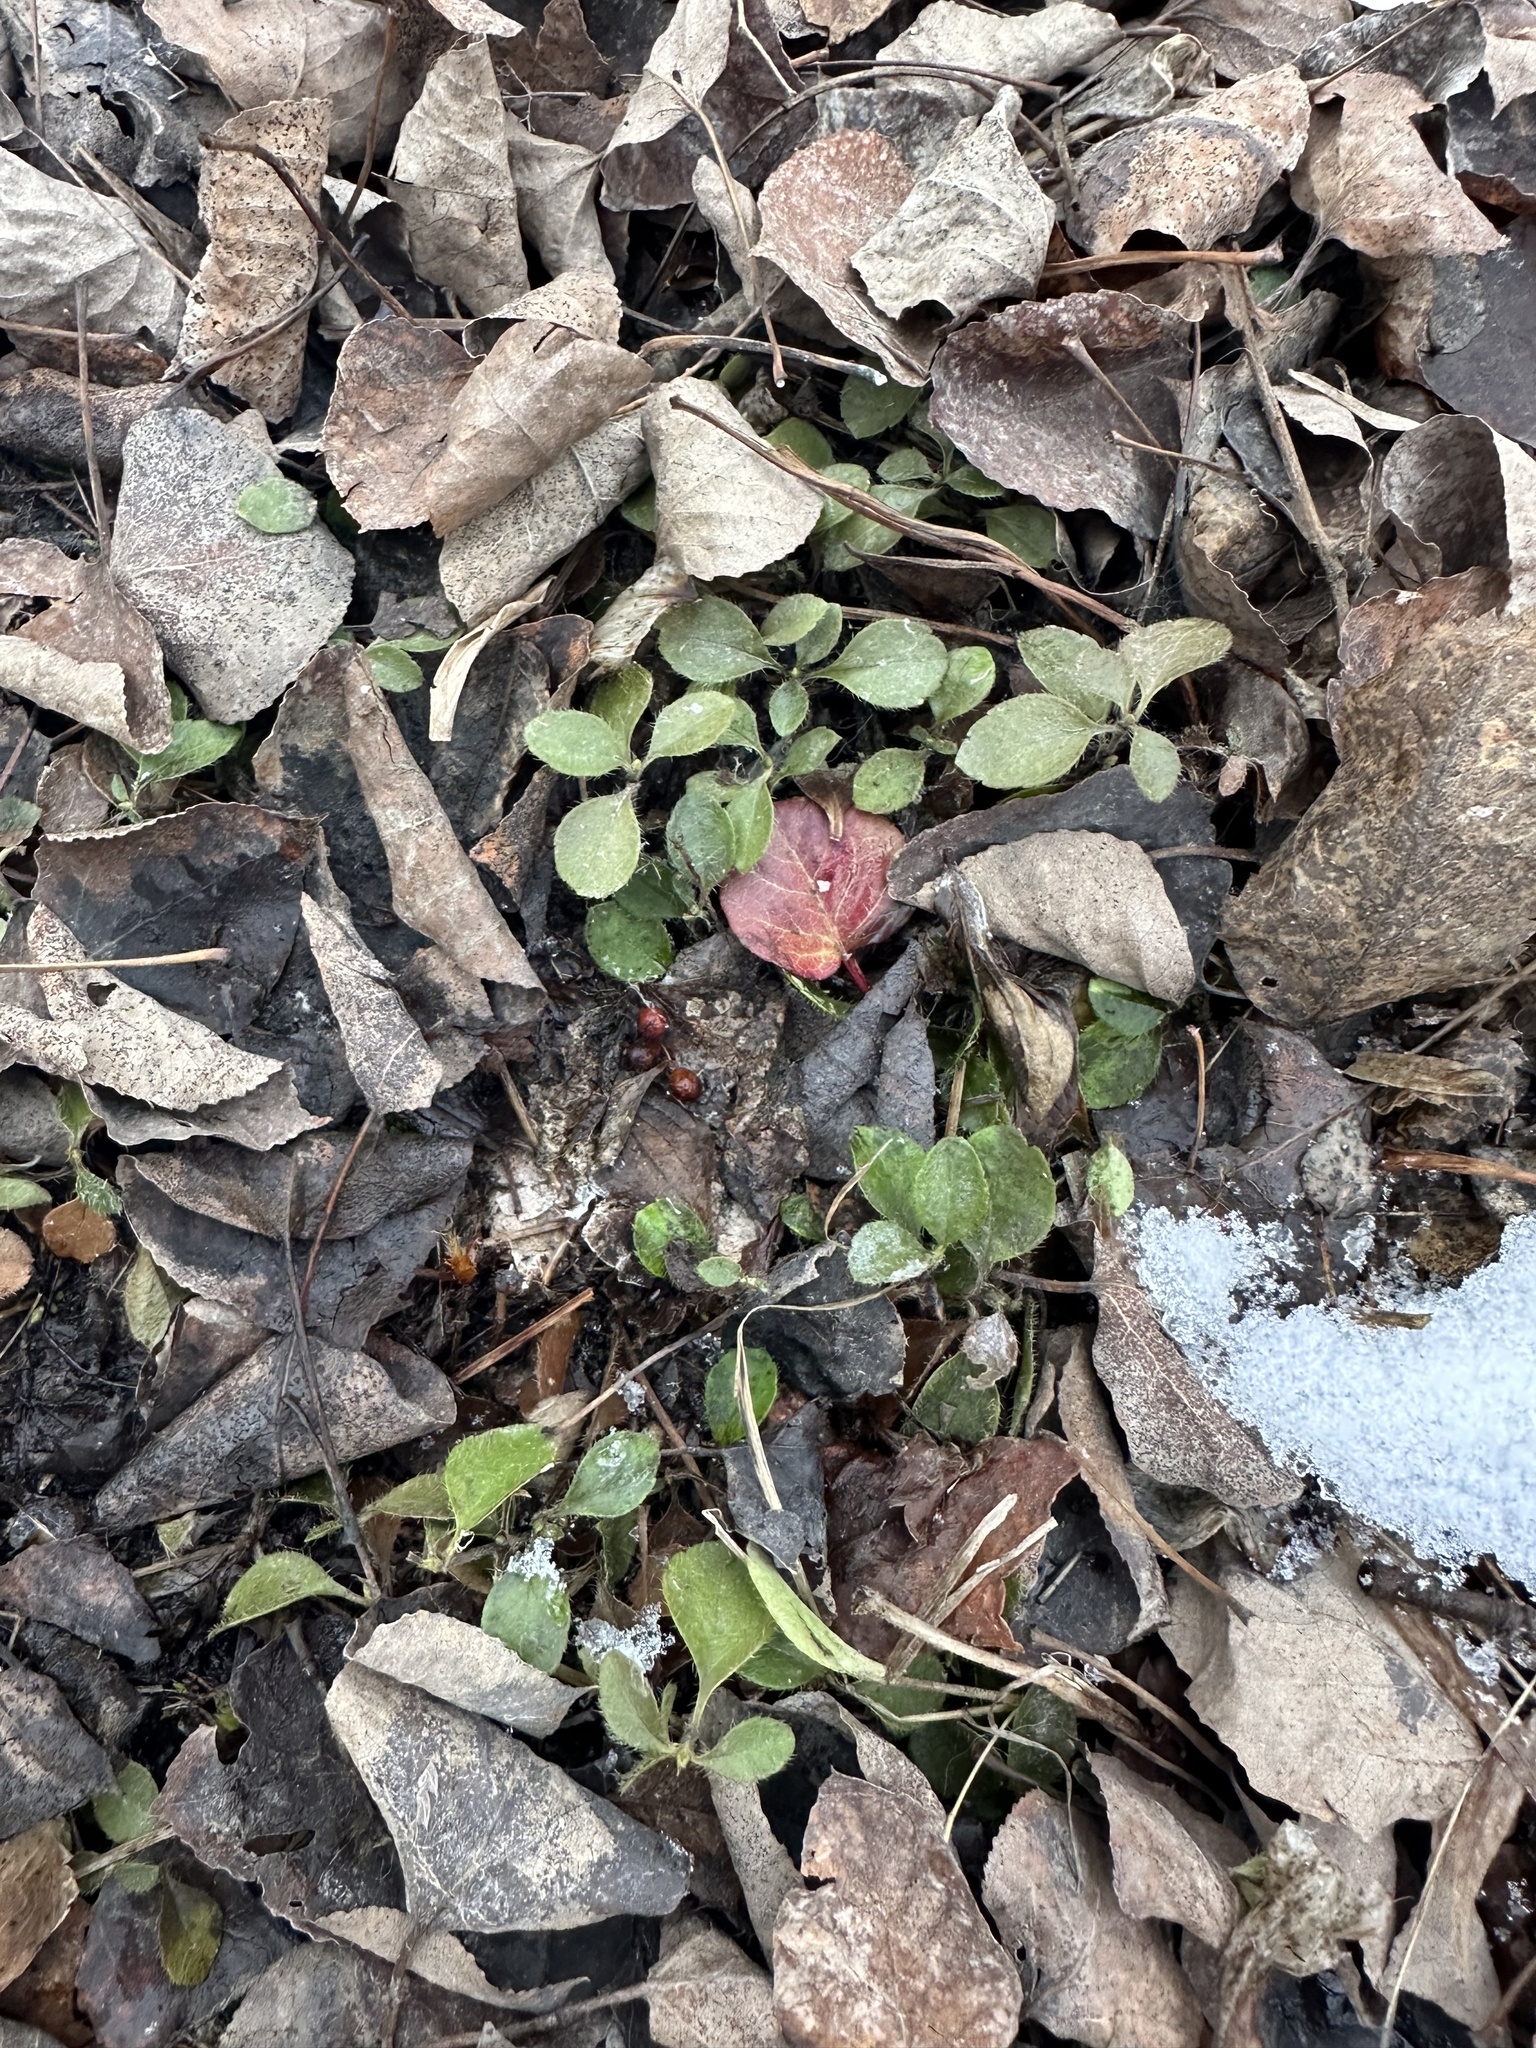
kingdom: Plantae
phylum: Tracheophyta
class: Magnoliopsida
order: Dipsacales
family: Caprifoliaceae
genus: Linnaea
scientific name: Linnaea borealis
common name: Twinflower
